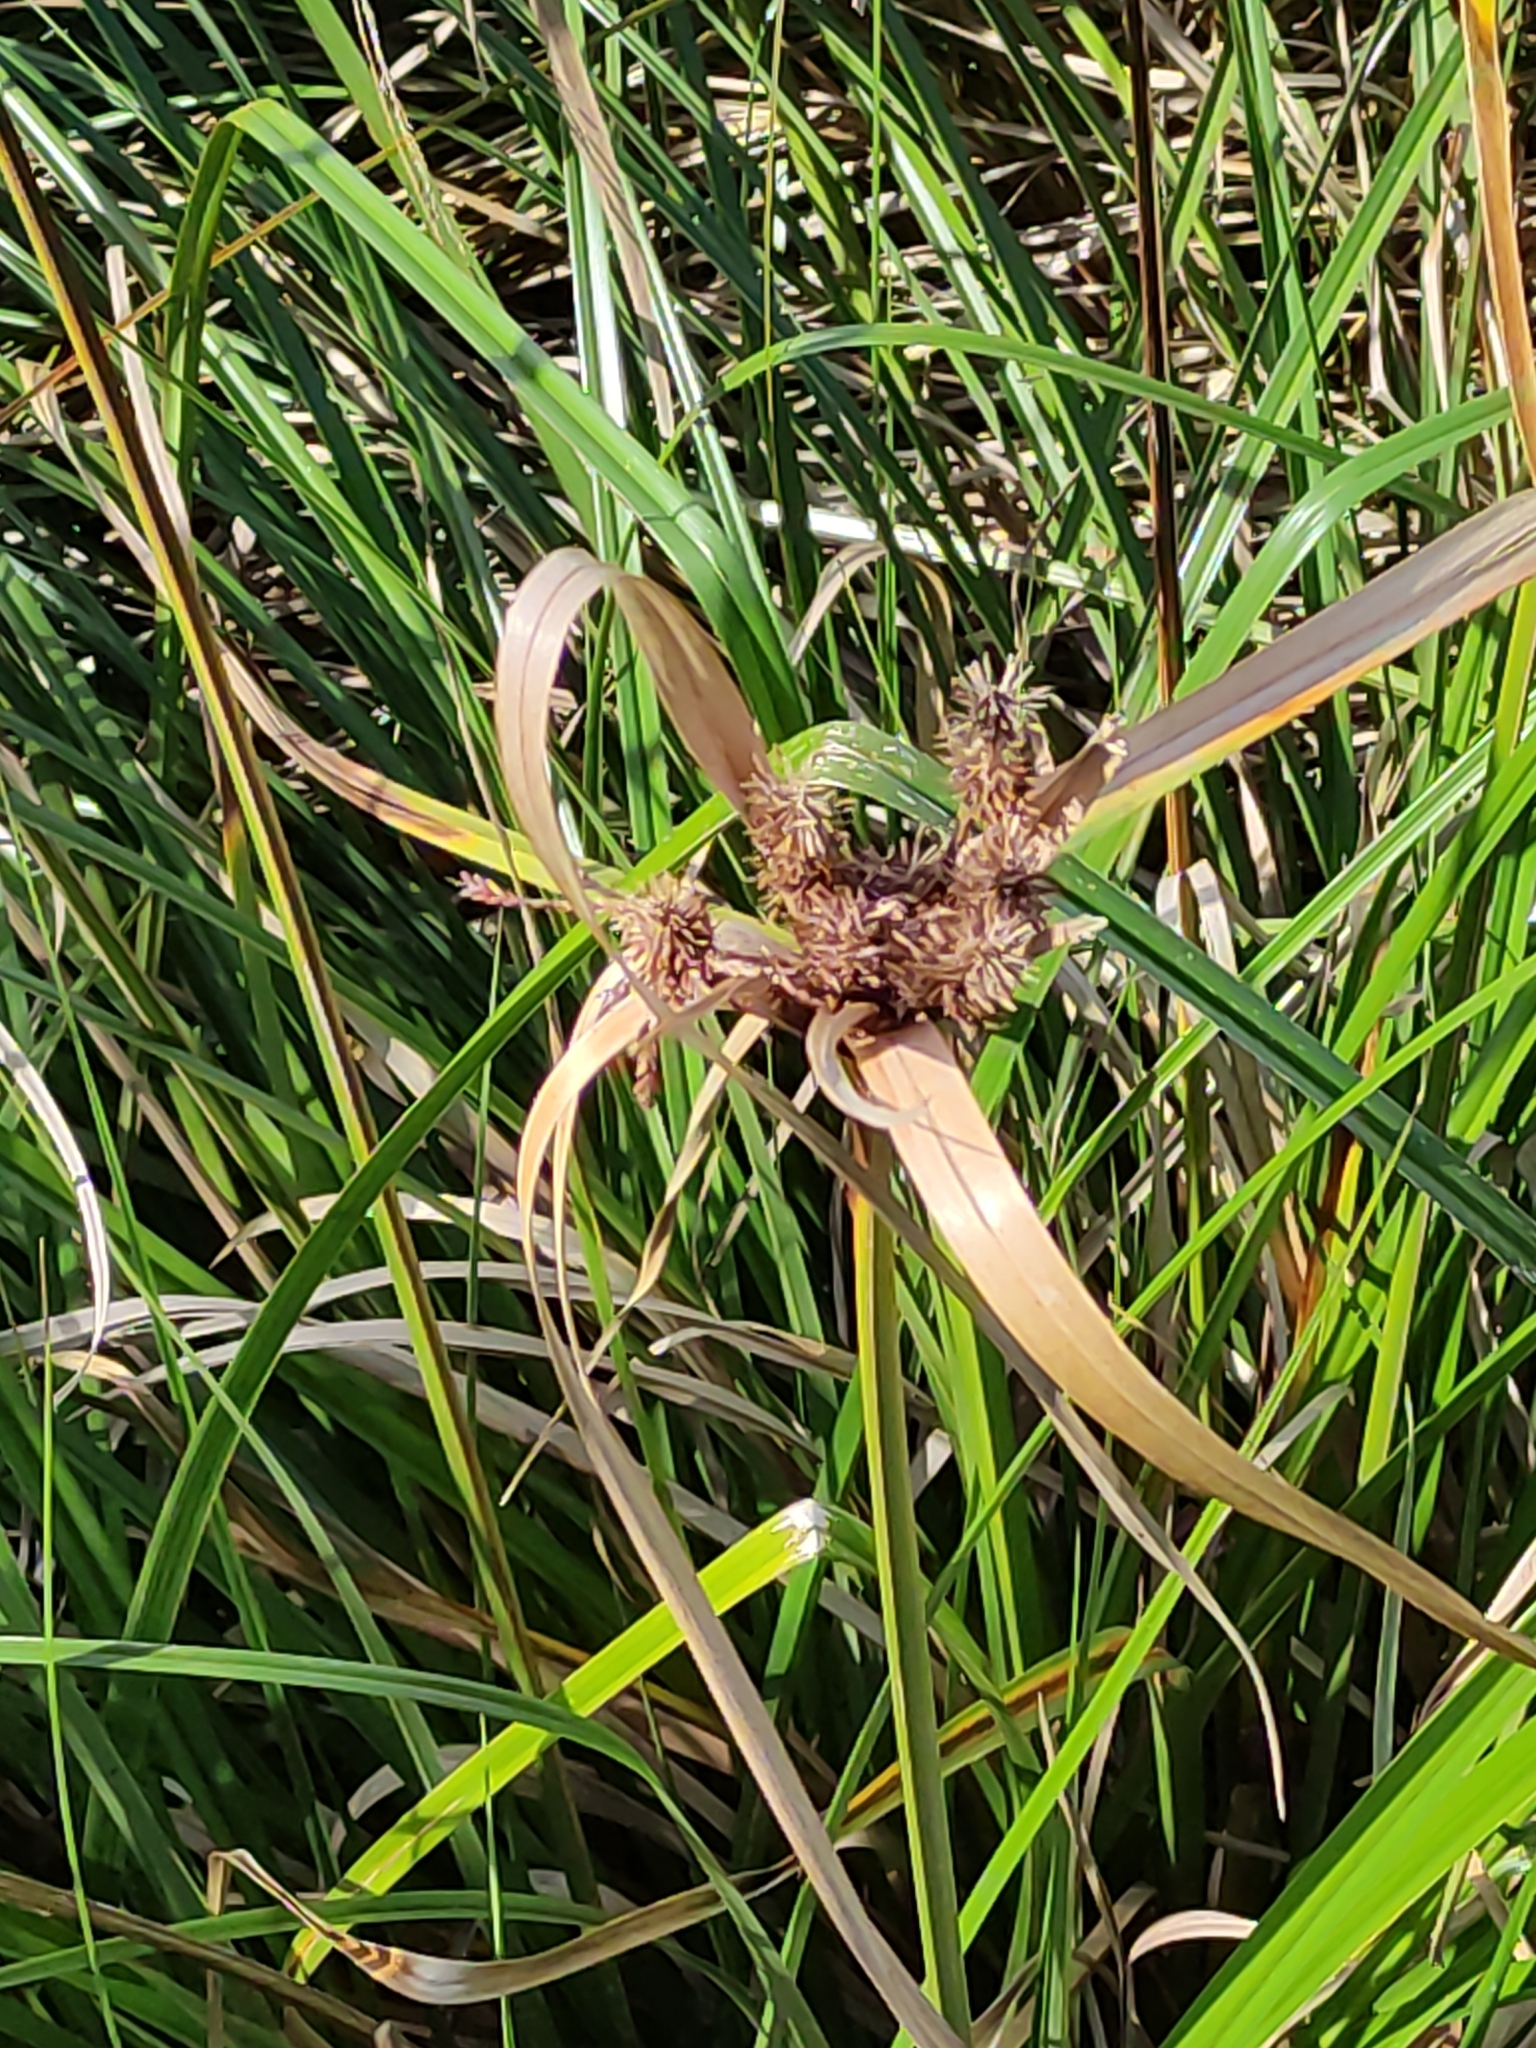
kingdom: Plantae
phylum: Tracheophyta
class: Liliopsida
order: Poales
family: Cyperaceae
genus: Cyperus
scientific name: Cyperus ustulatus
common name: Giant umbrella-sedge
